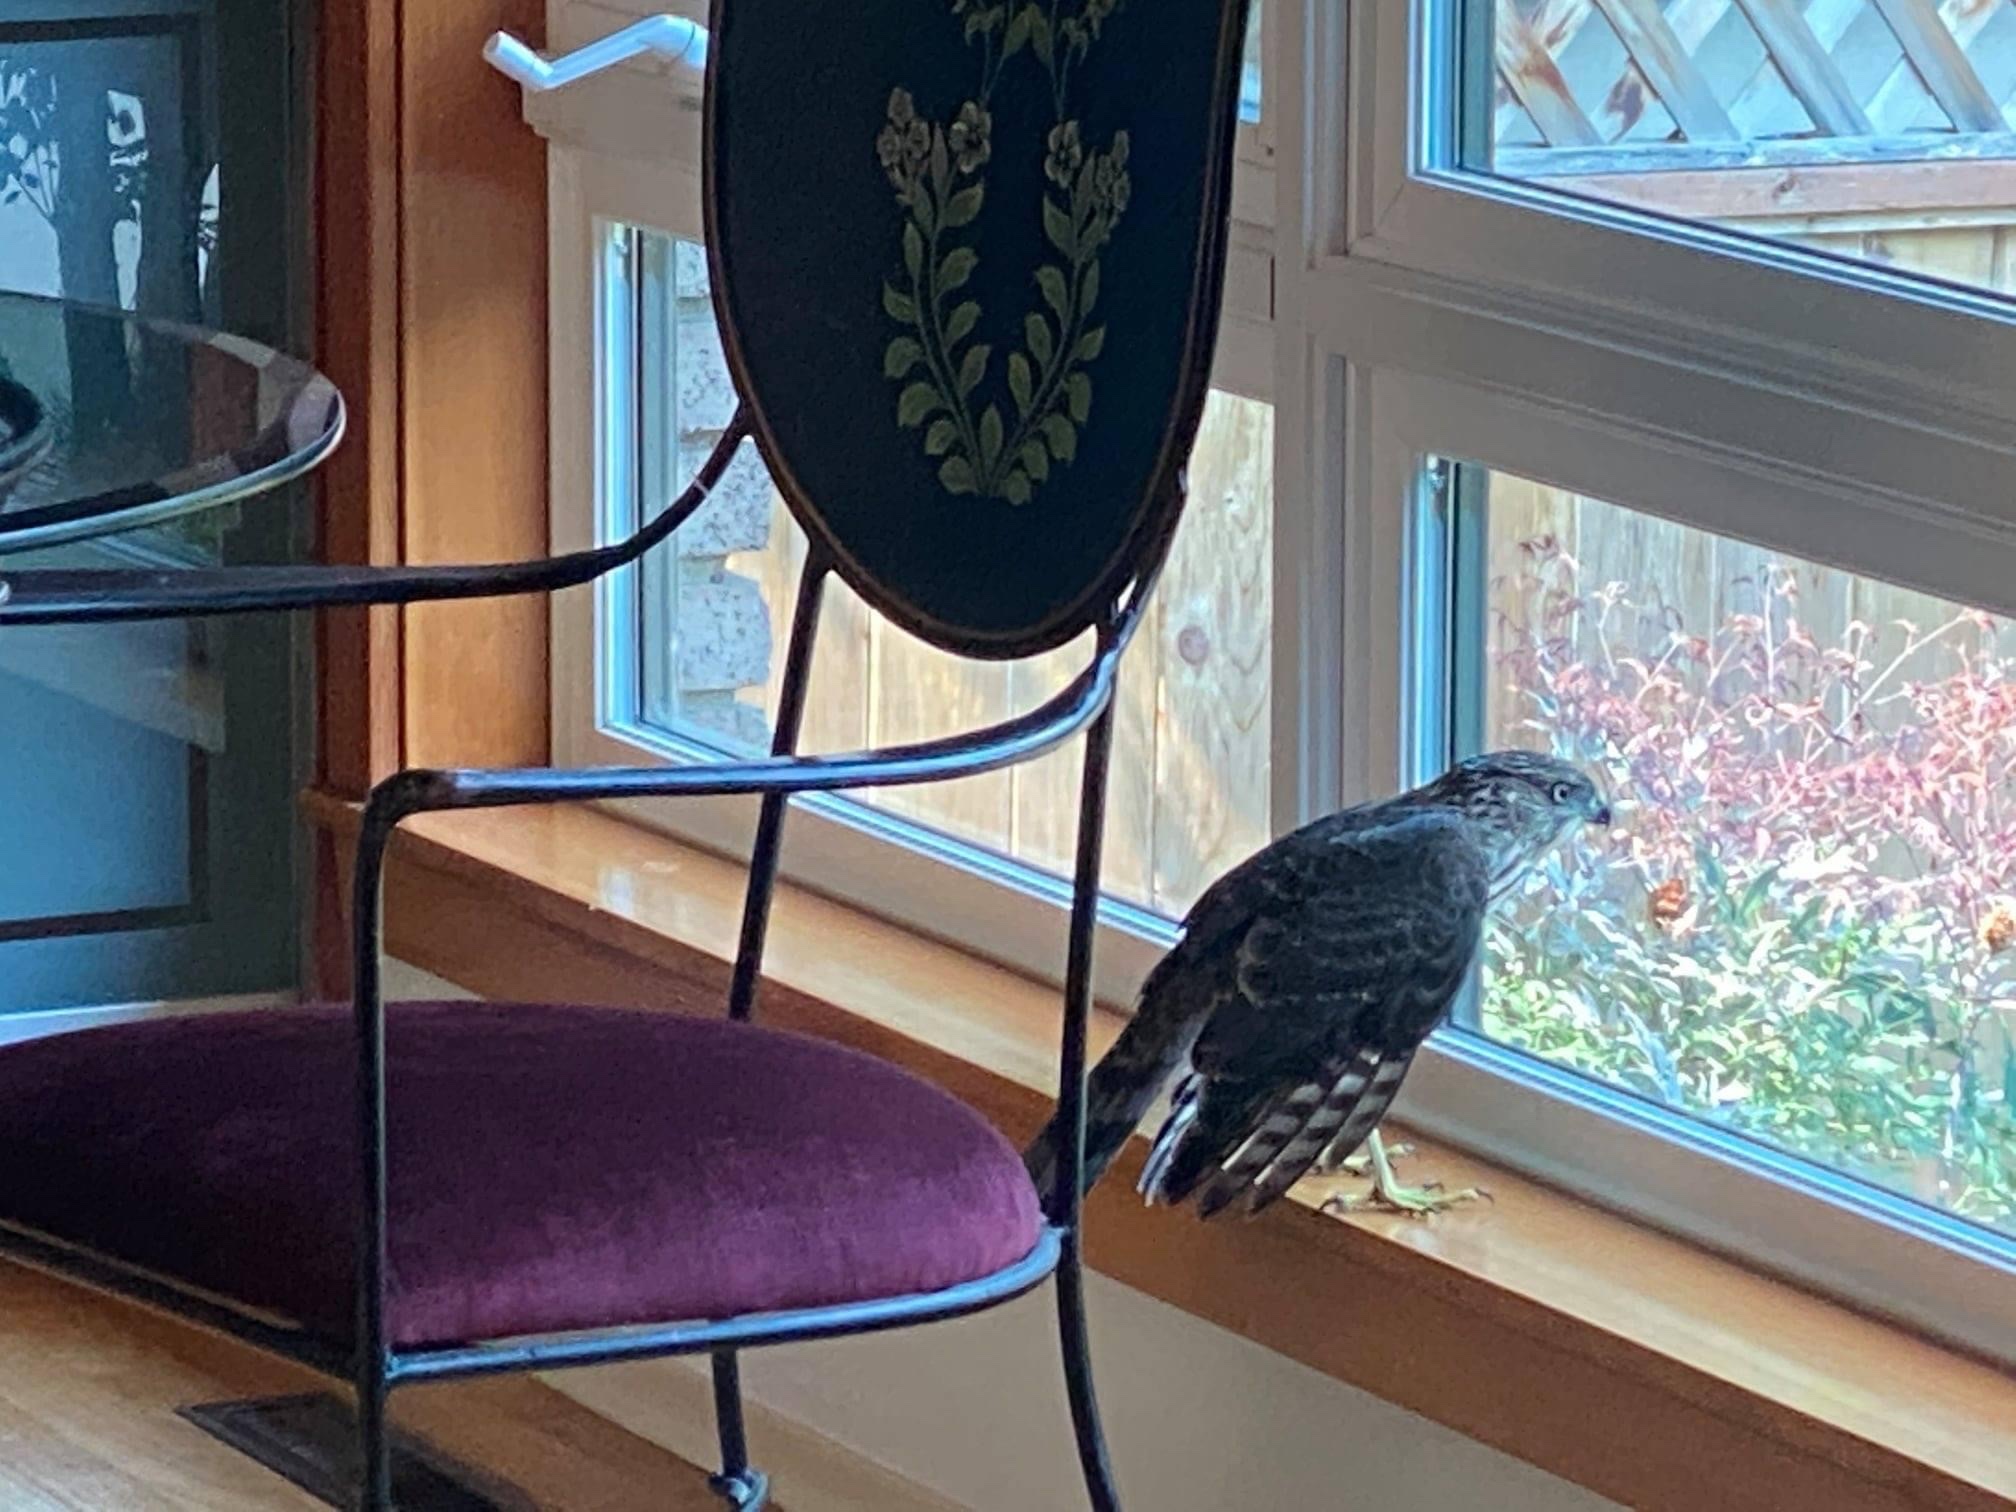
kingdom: Animalia
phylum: Chordata
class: Aves
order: Accipitriformes
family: Accipitridae
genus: Accipiter
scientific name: Accipiter cooperii
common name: Cooper's hawk
